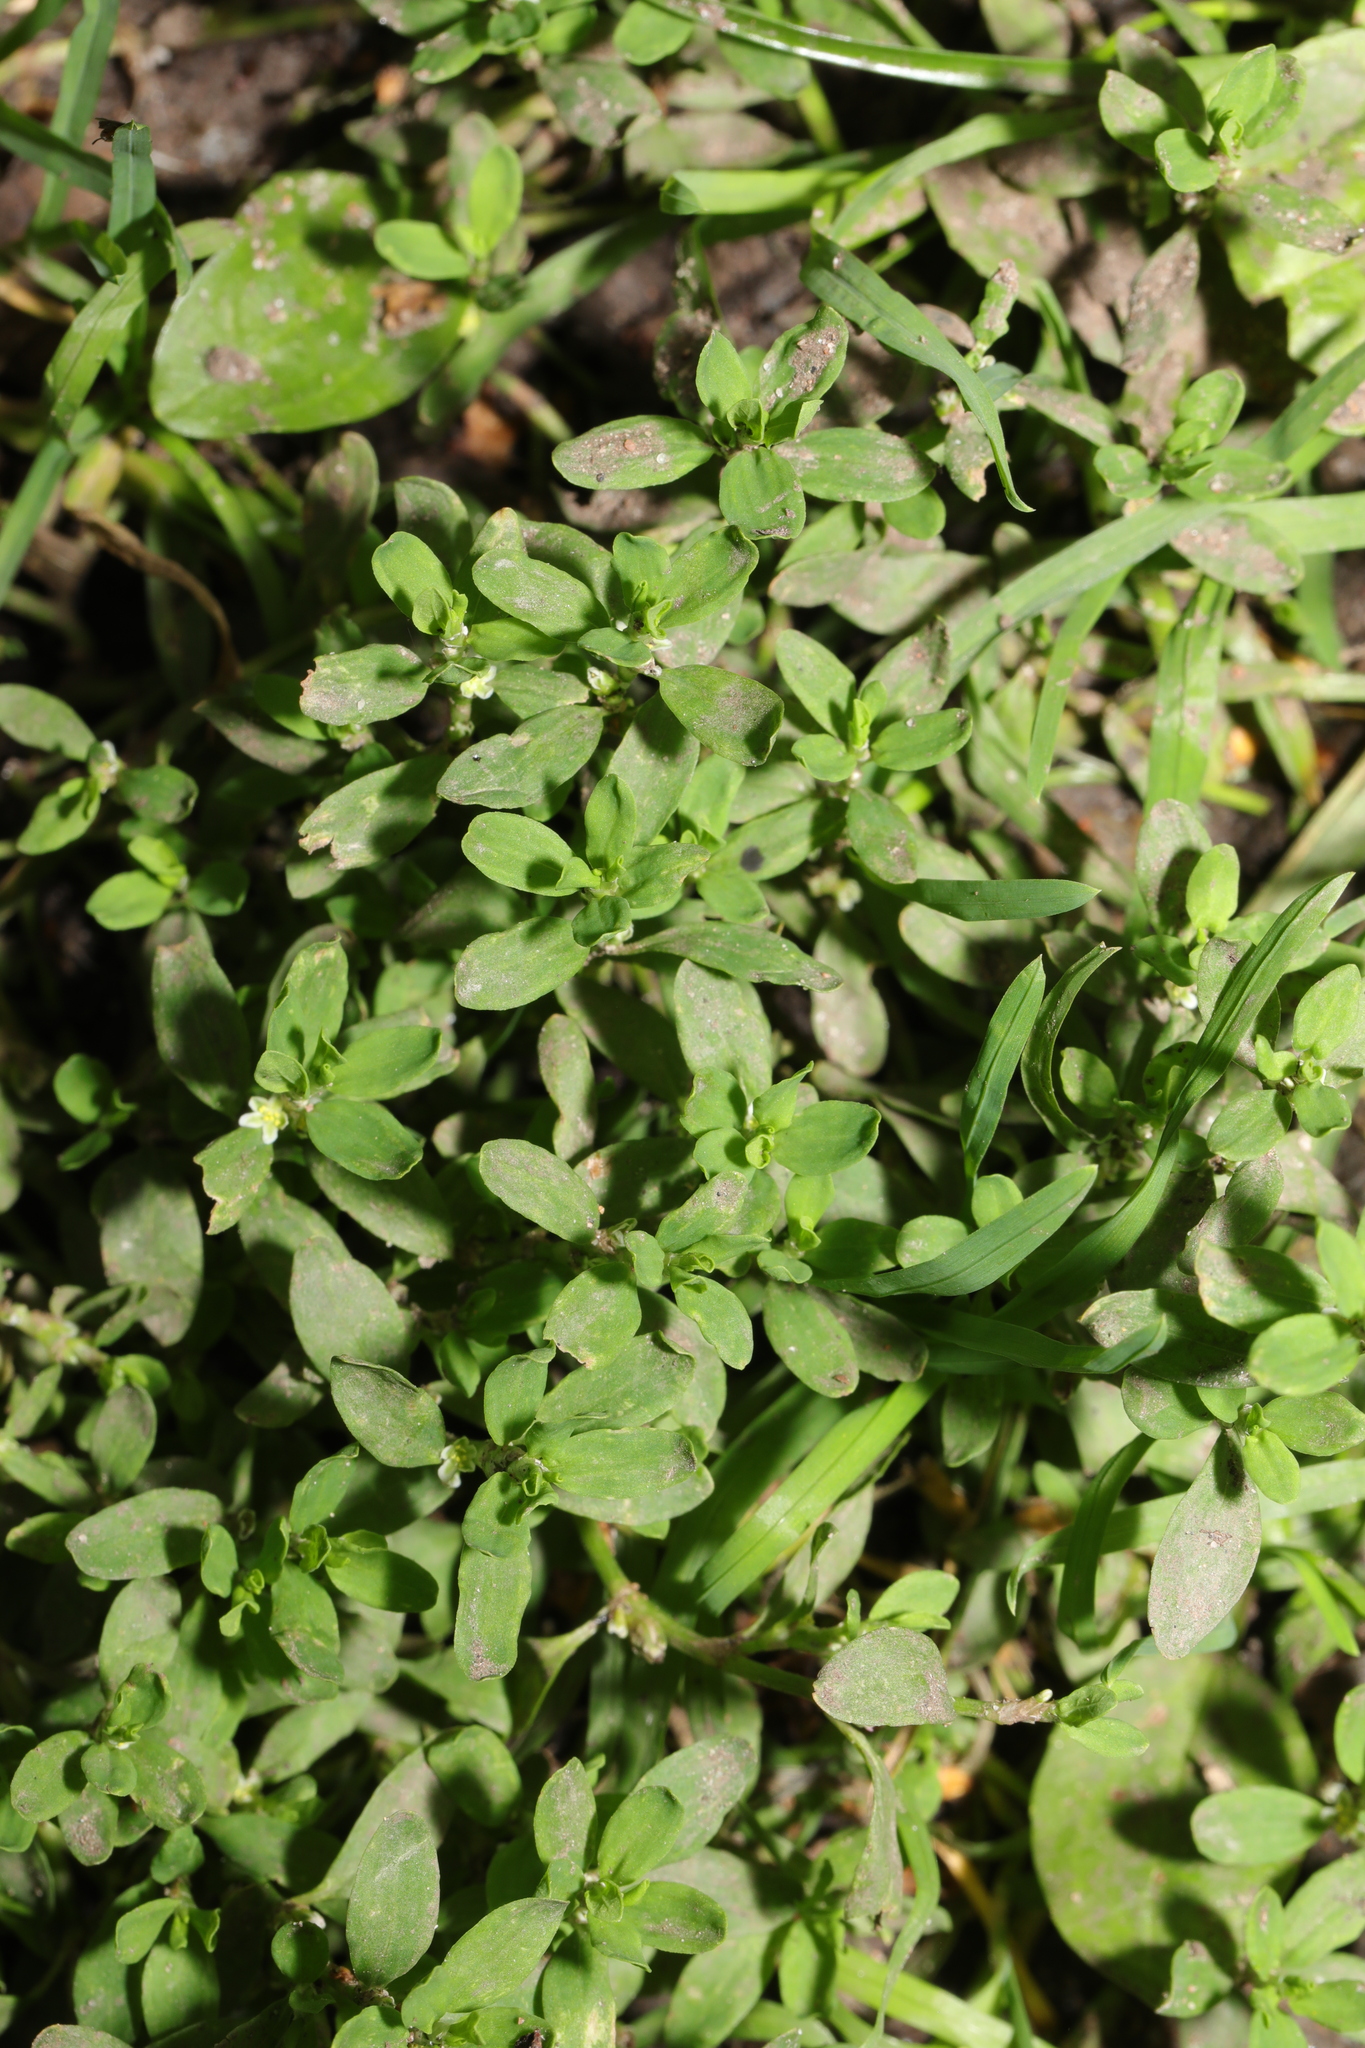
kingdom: Plantae
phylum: Tracheophyta
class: Magnoliopsida
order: Caryophyllales
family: Polygonaceae
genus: Polygonum
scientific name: Polygonum aviculare
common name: Prostrate knotweed
